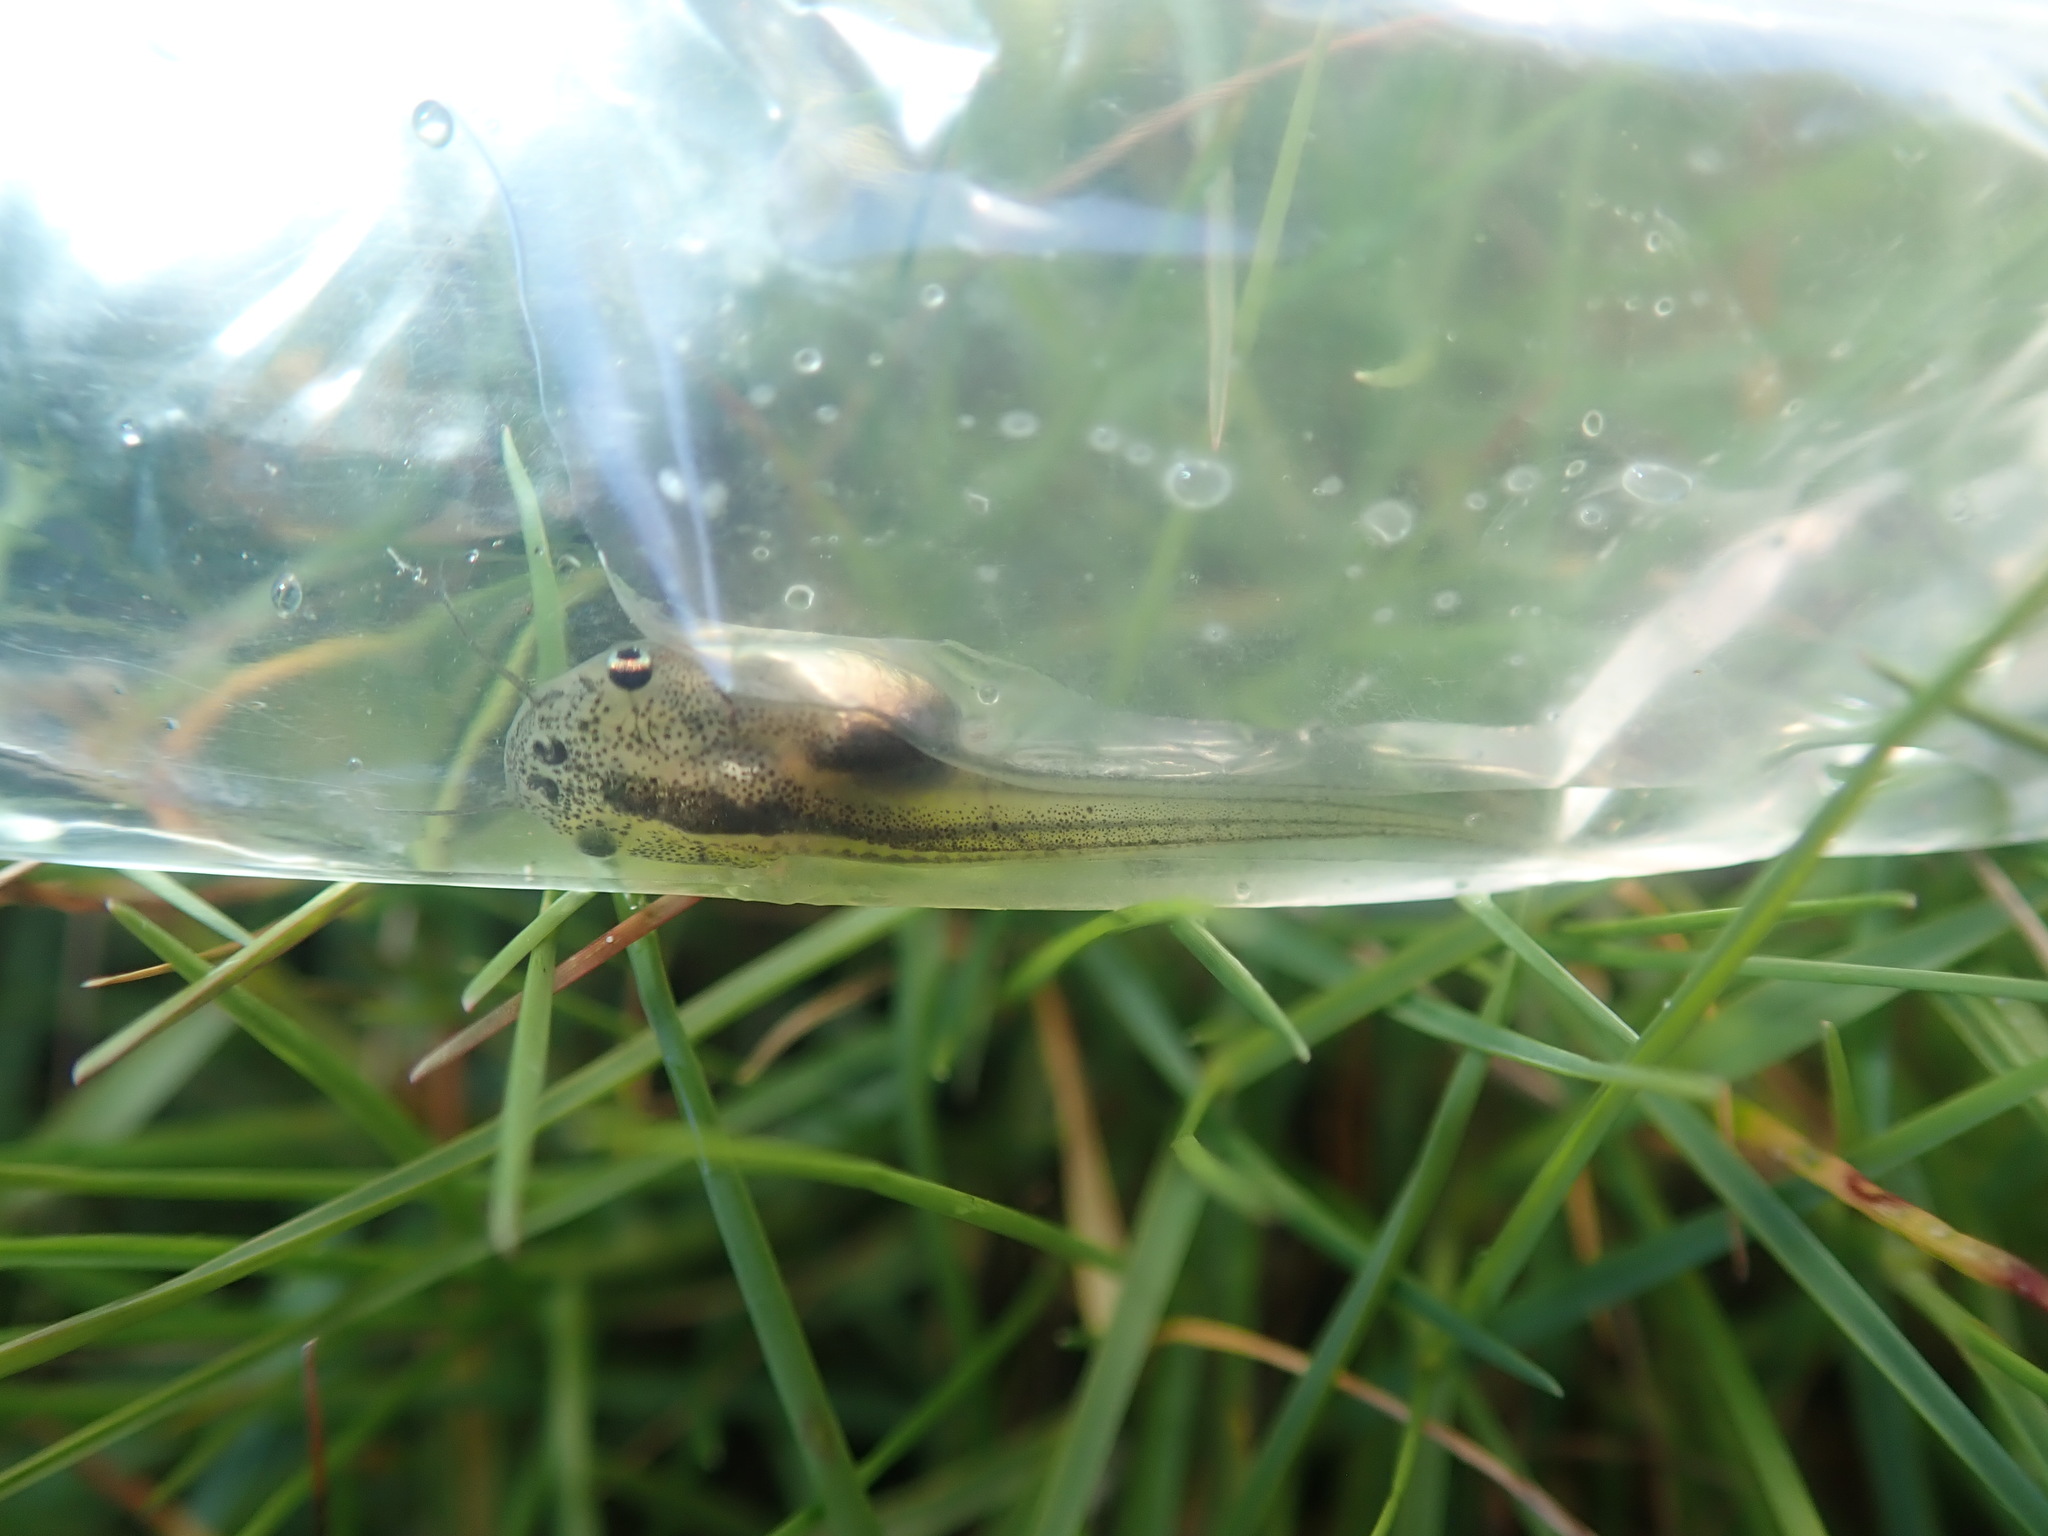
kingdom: Animalia
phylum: Chordata
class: Amphibia
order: Anura
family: Pipidae
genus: Xenopus
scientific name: Xenopus laevis
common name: African clawed frog
